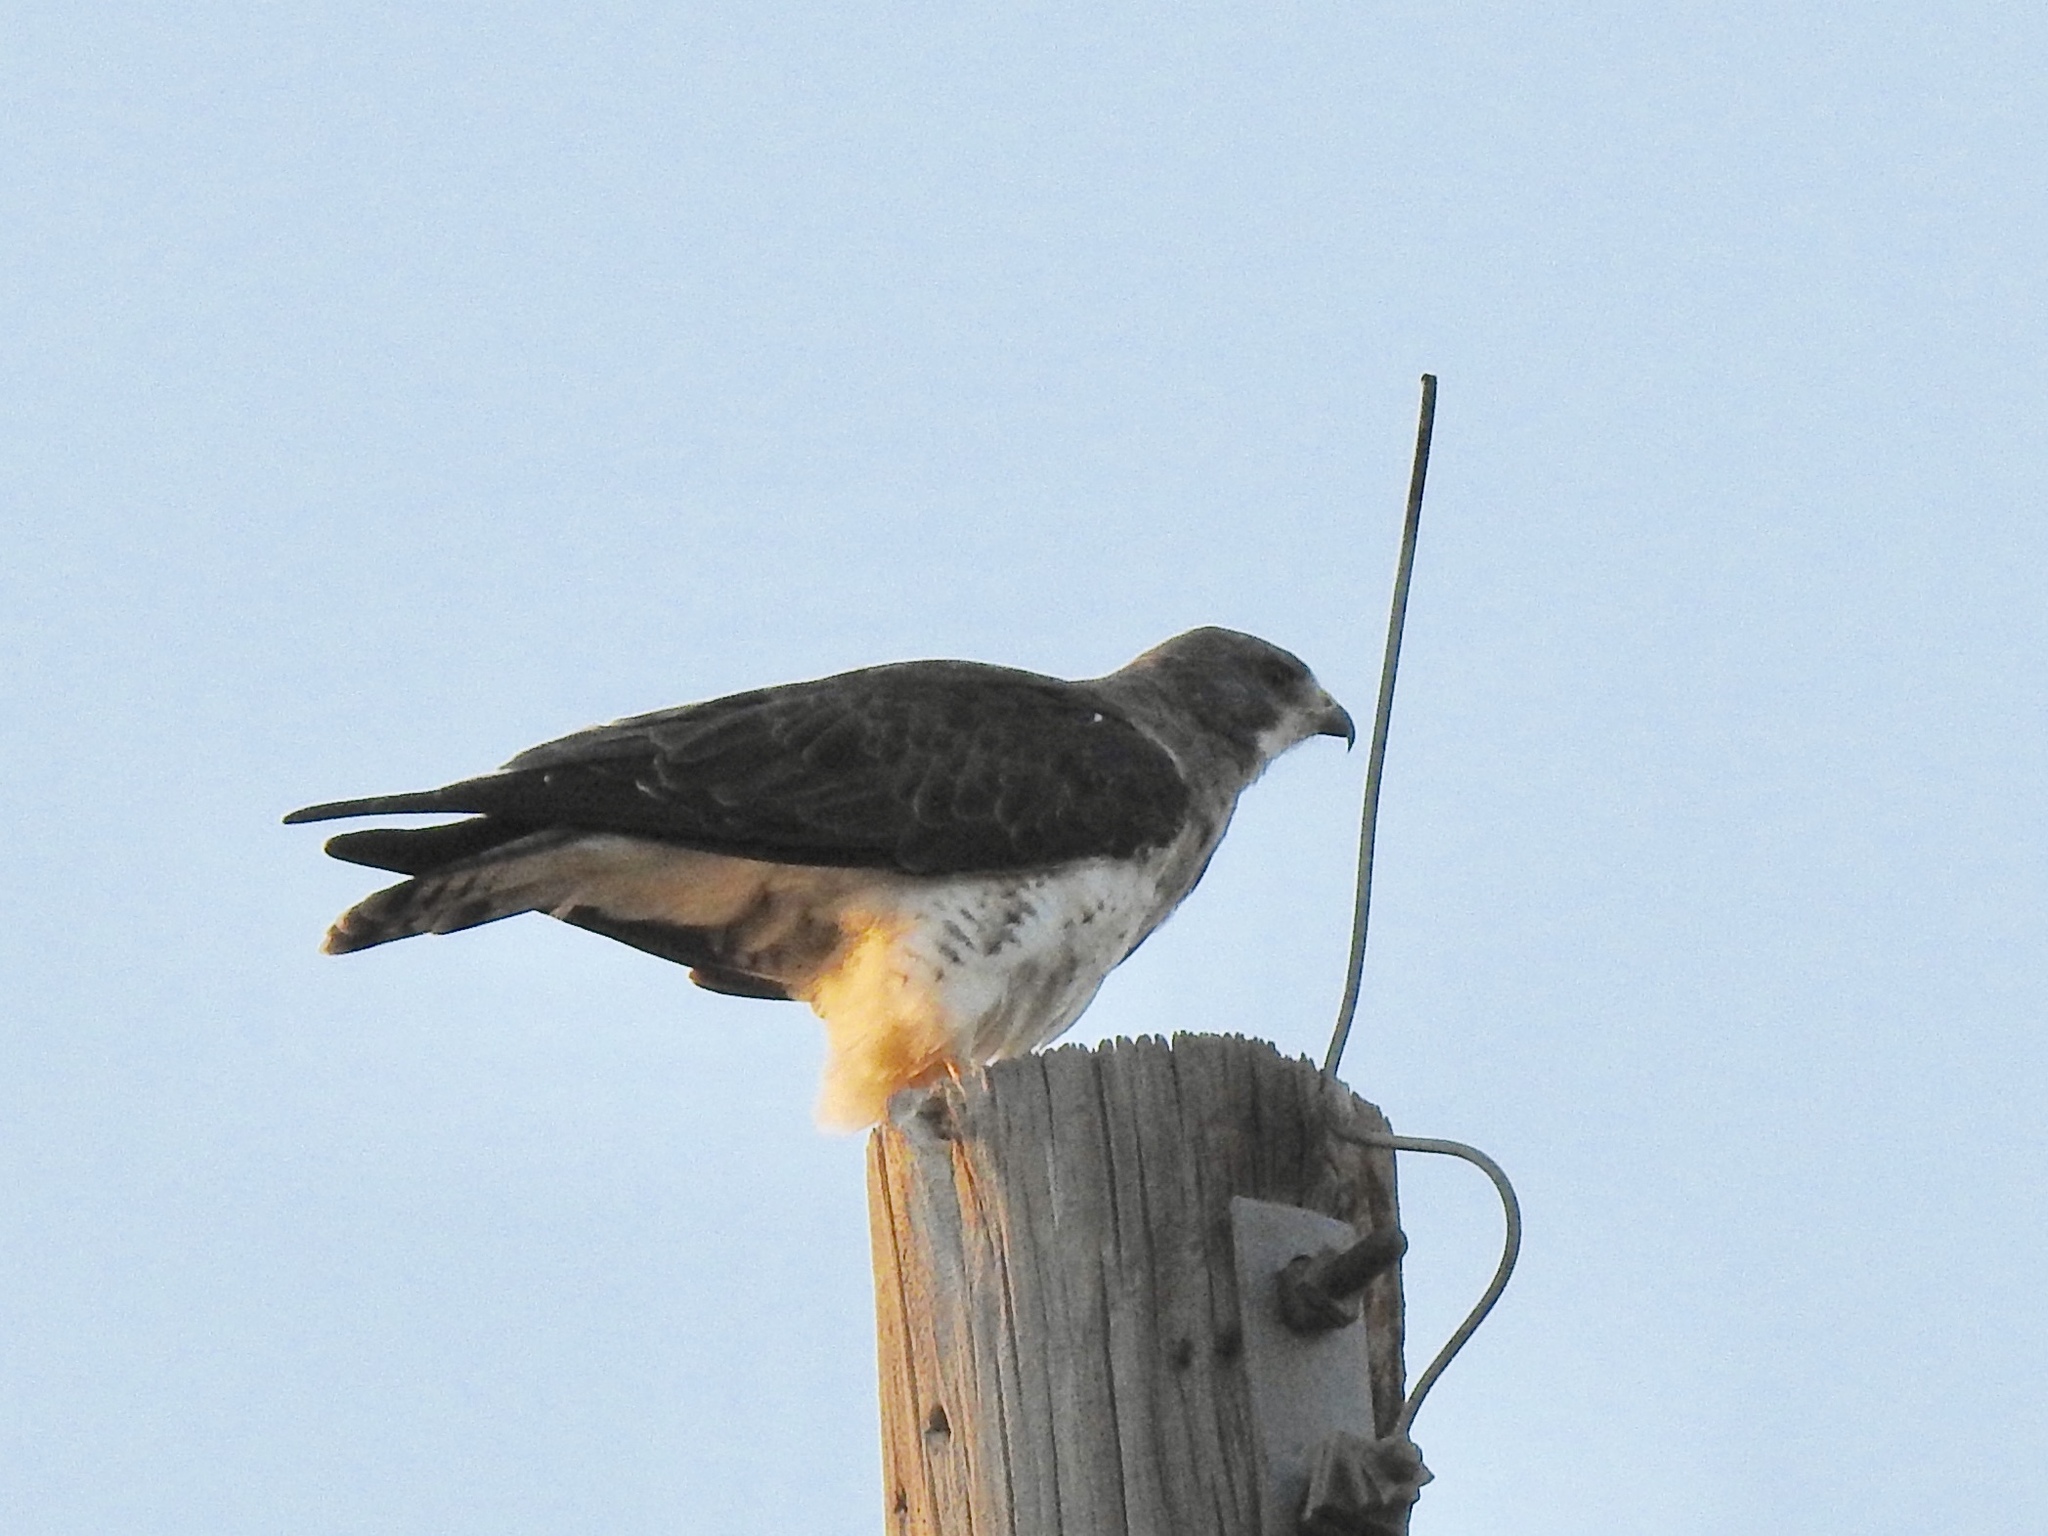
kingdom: Animalia
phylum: Chordata
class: Aves
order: Accipitriformes
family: Accipitridae
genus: Buteo
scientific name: Buteo swainsoni
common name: Swainson's hawk
